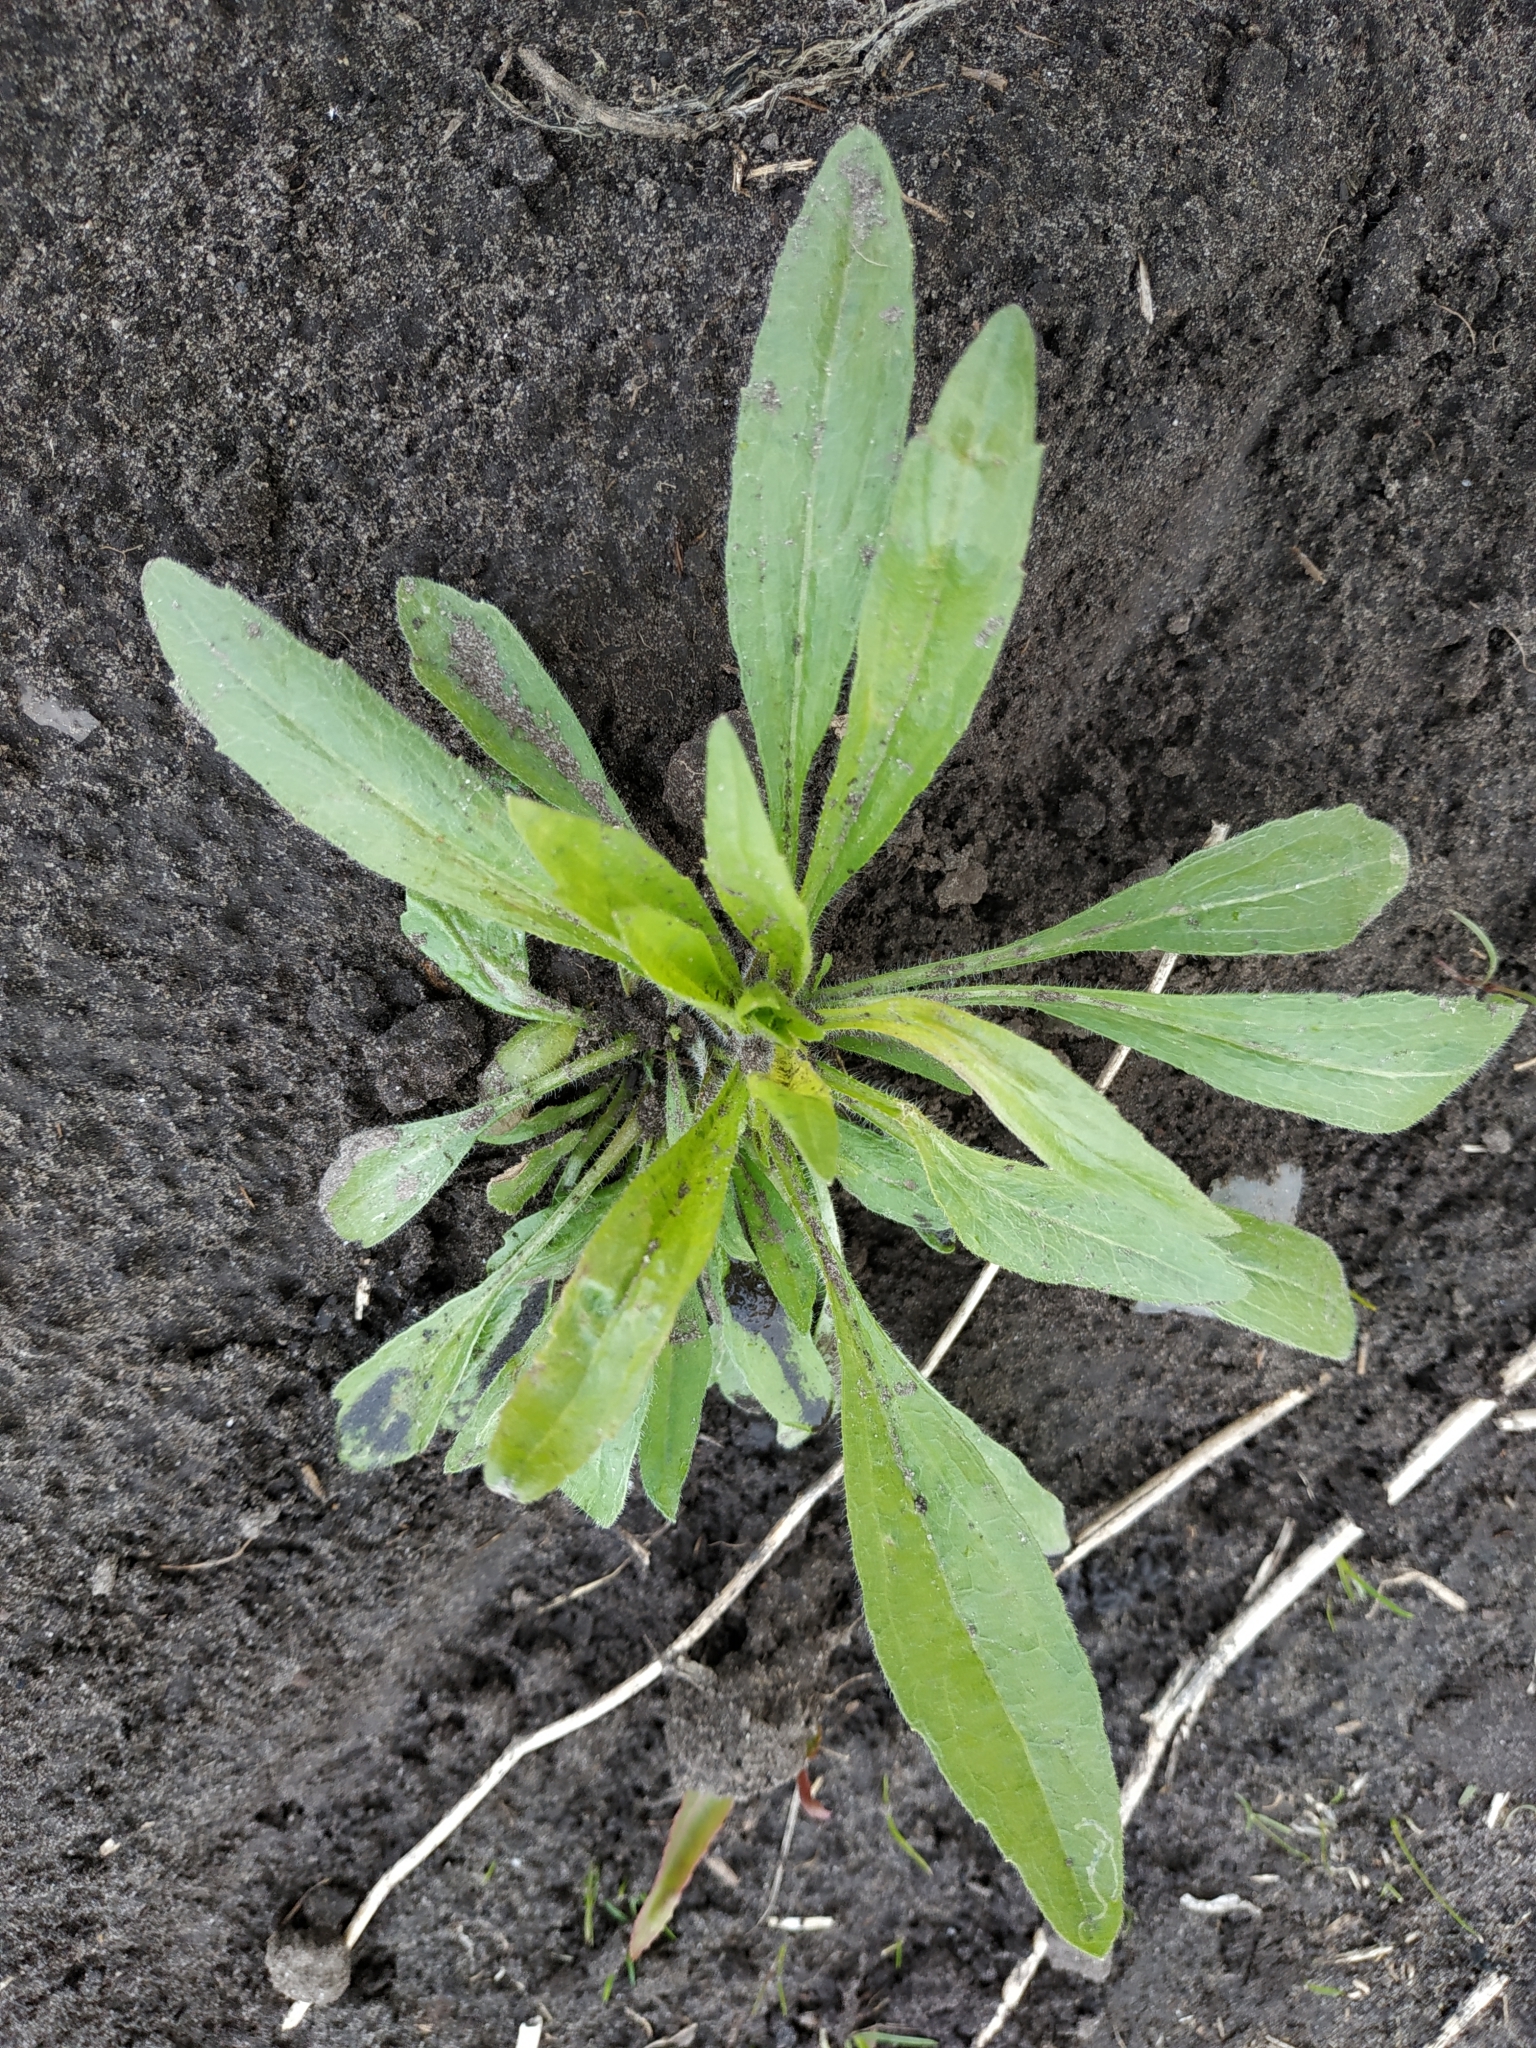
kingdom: Plantae
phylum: Tracheophyta
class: Magnoliopsida
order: Asterales
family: Asteraceae
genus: Erigeron
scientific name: Erigeron canadensis
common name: Canadian fleabane
